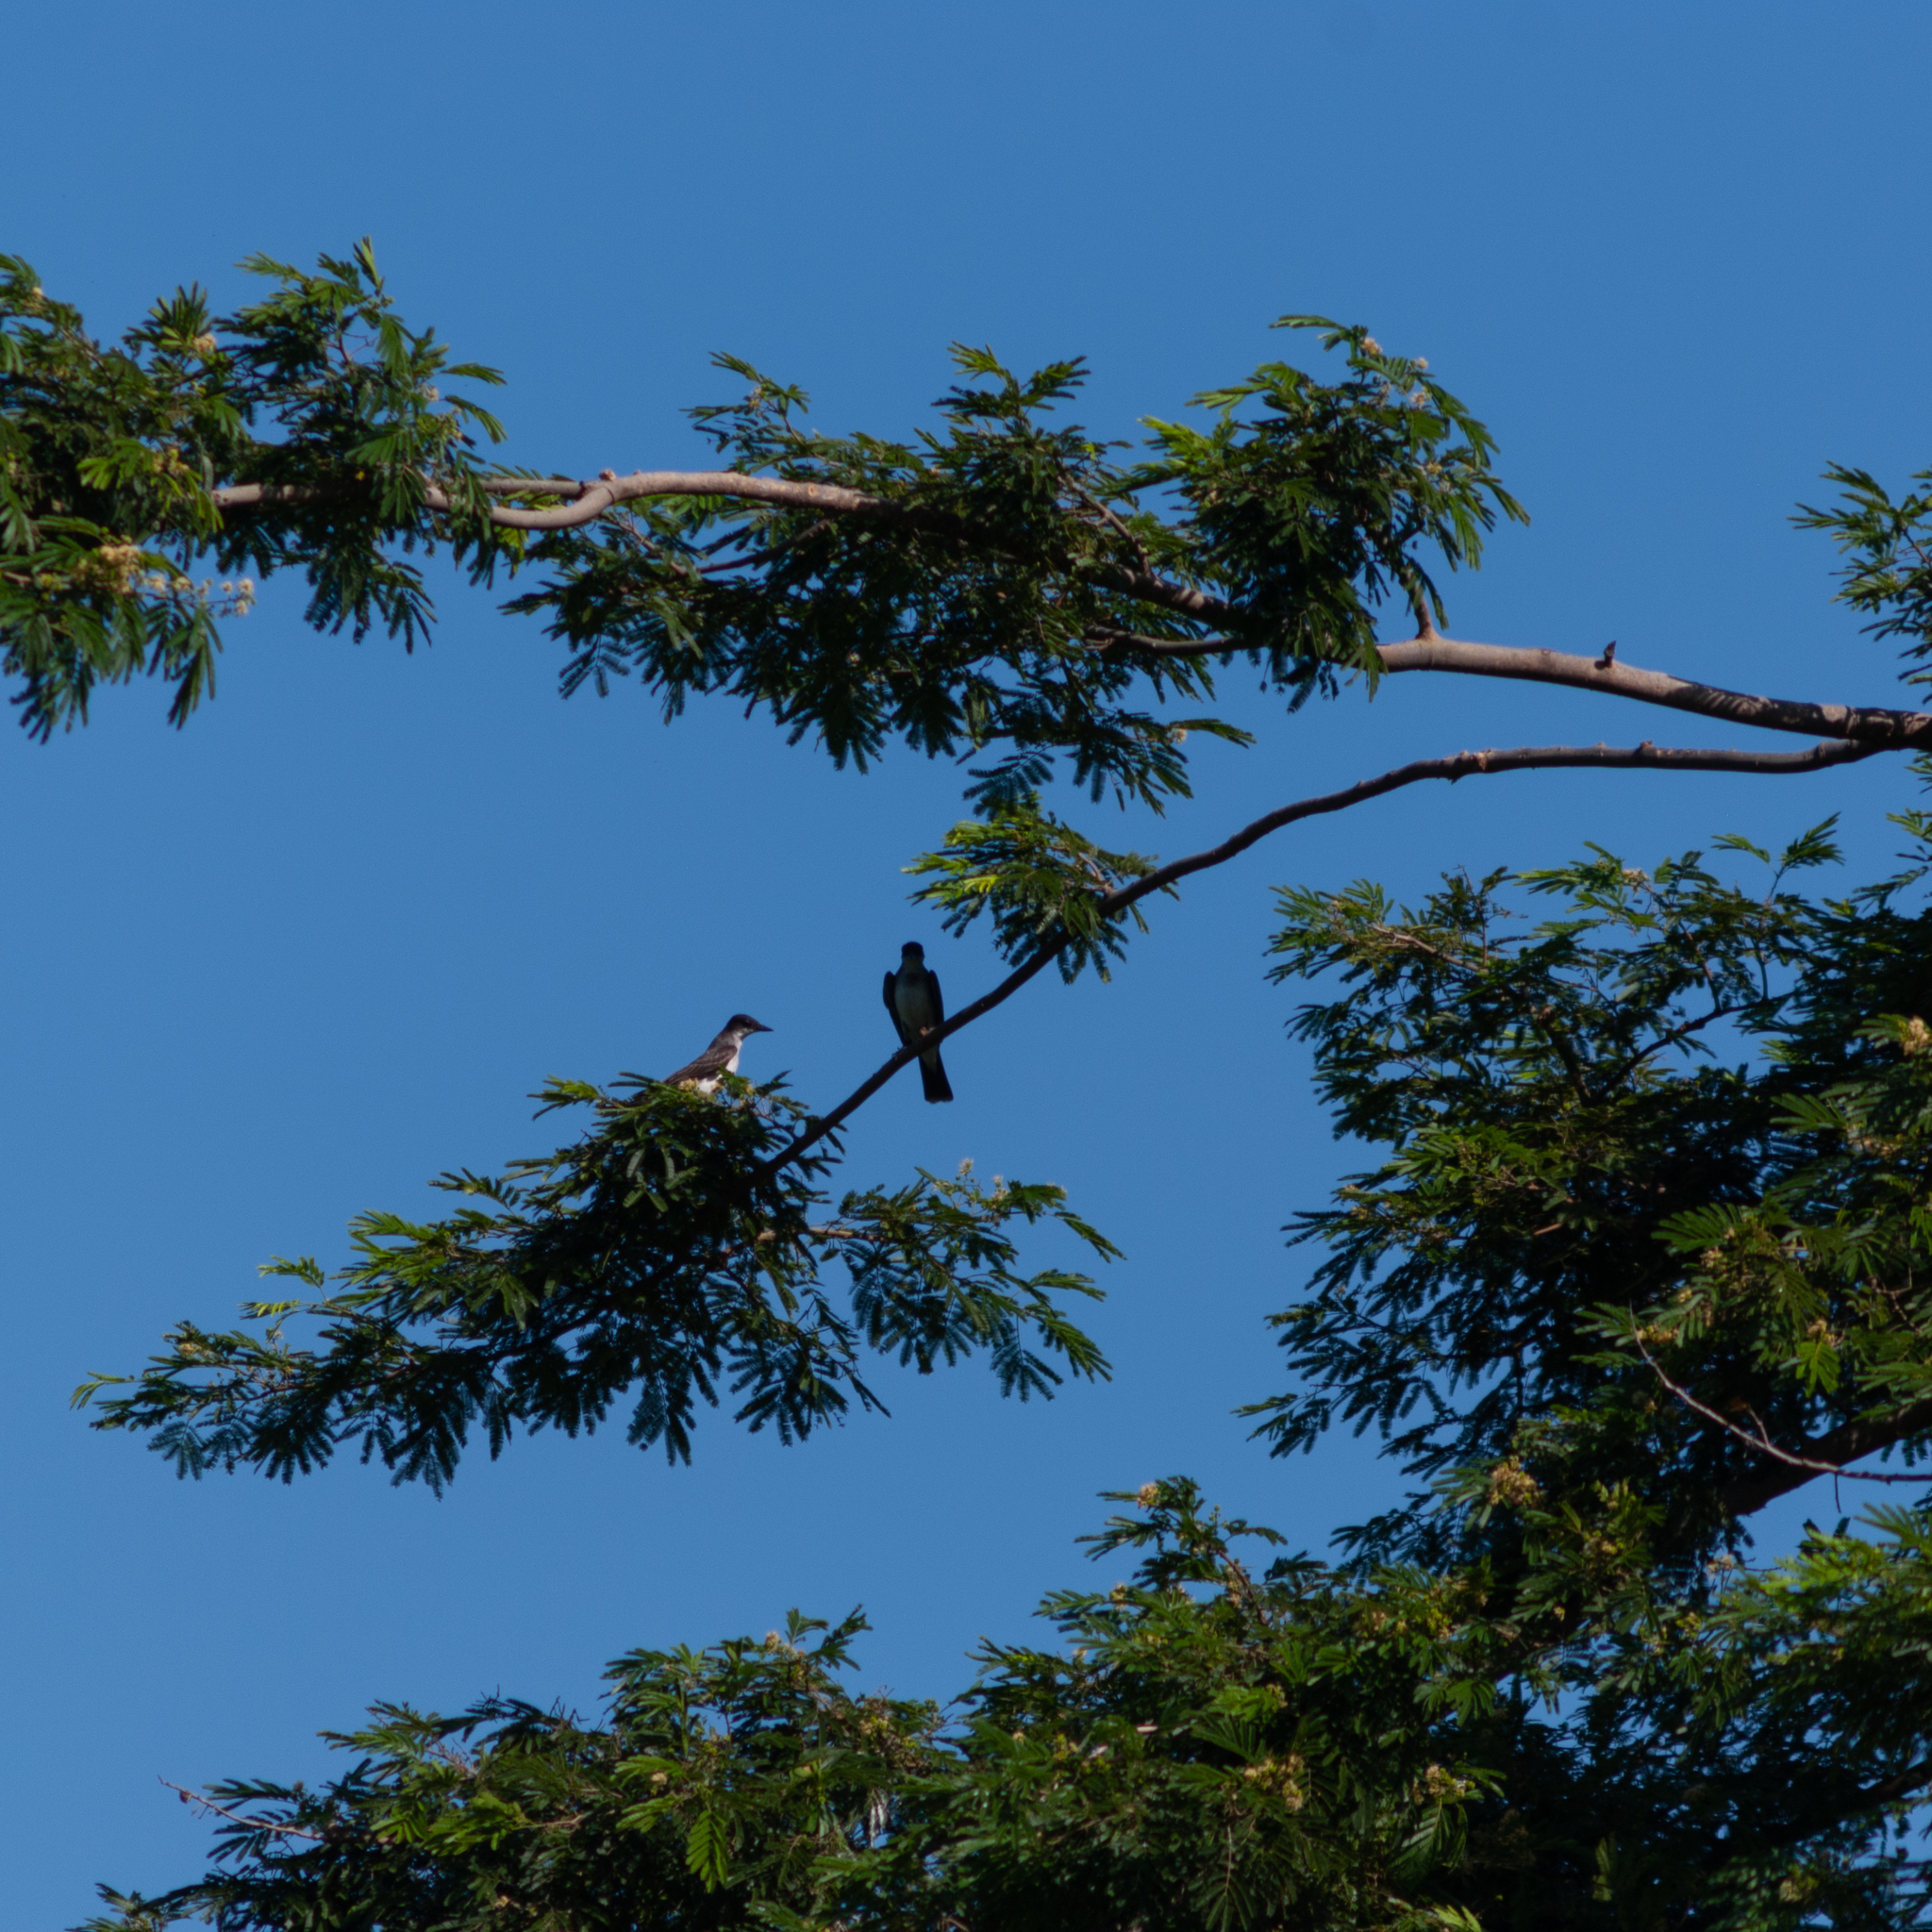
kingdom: Animalia
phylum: Chordata
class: Aves
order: Passeriformes
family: Tyrannidae
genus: Tyrannus
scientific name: Tyrannus tyrannus
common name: Eastern kingbird
